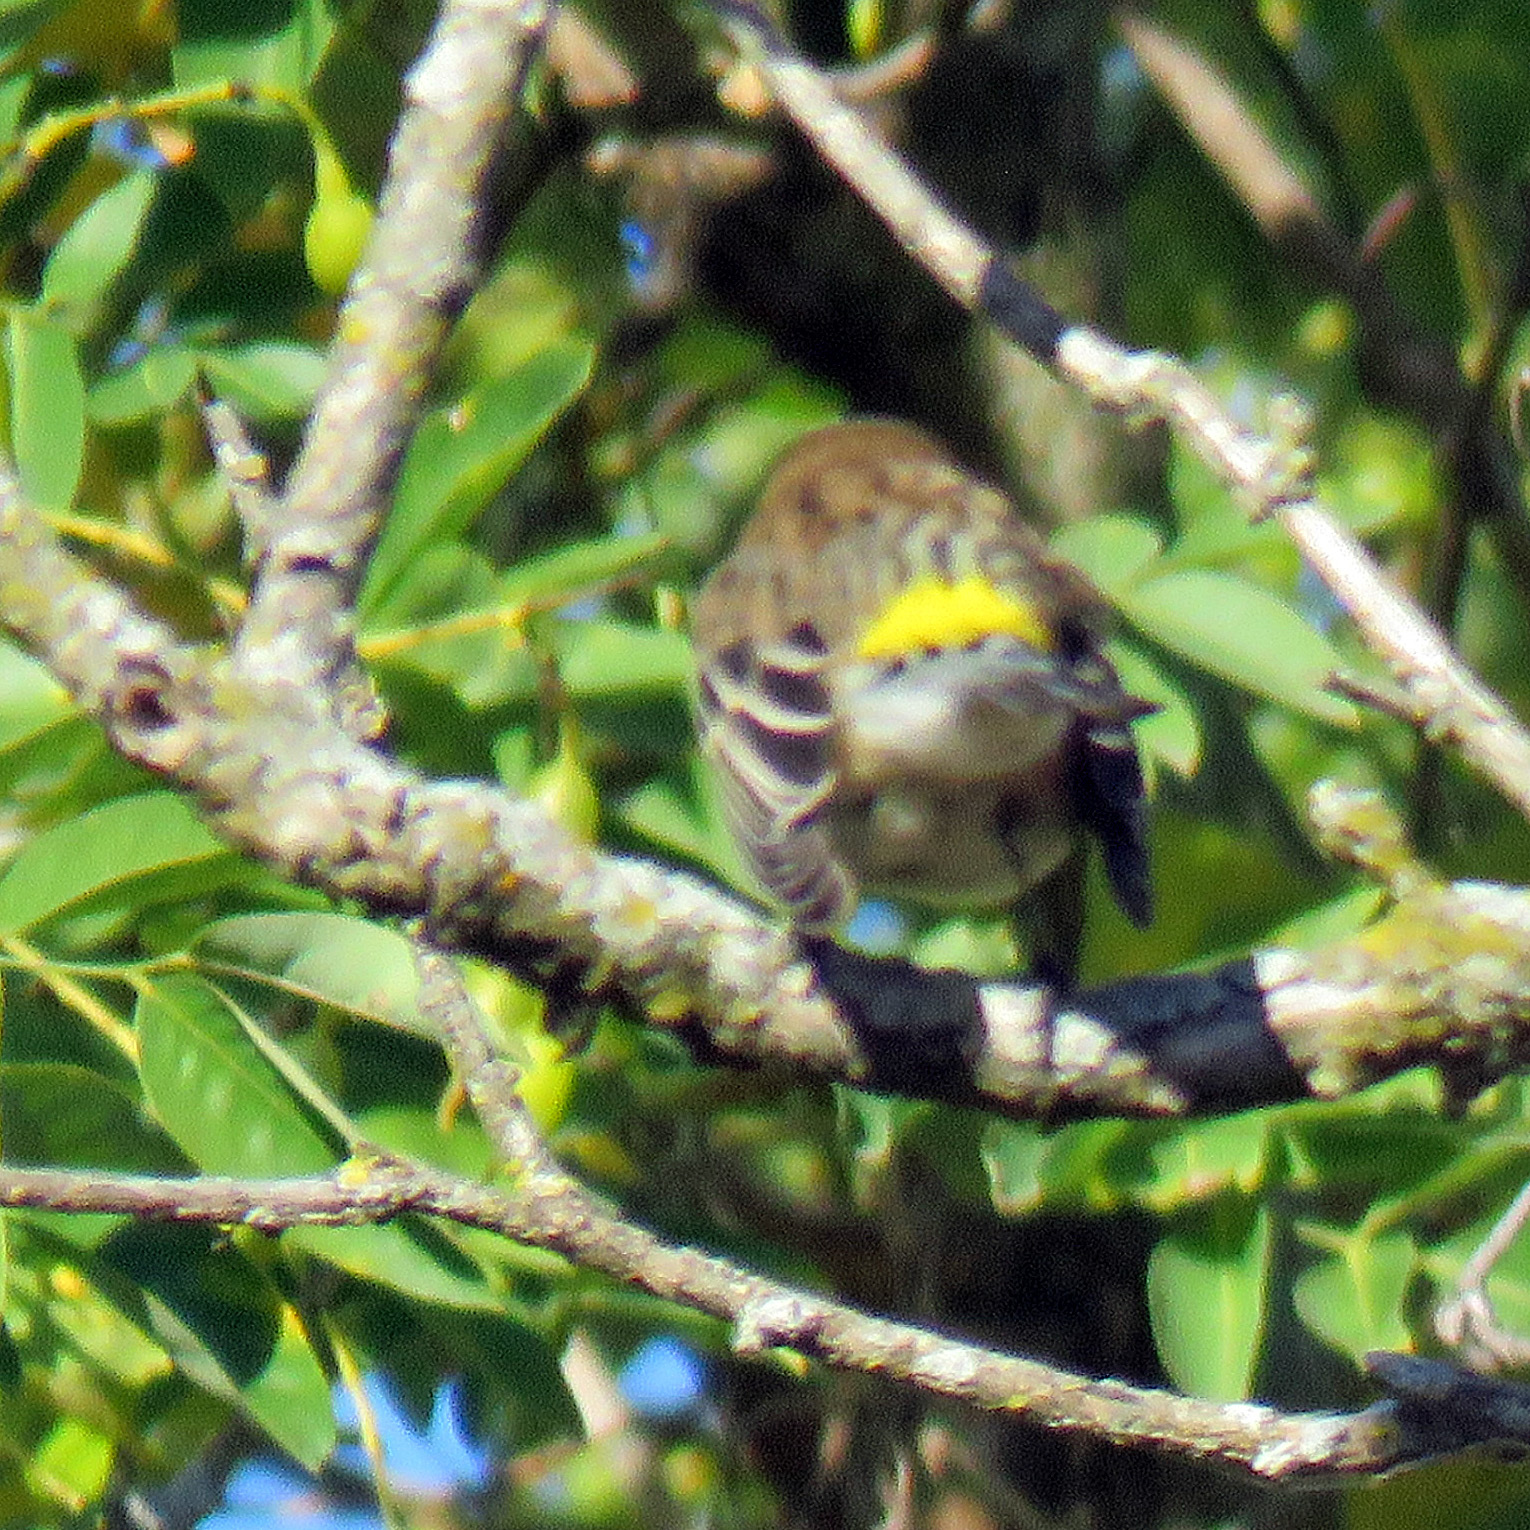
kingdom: Animalia
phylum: Chordata
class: Aves
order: Passeriformes
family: Parulidae
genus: Setophaga
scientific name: Setophaga coronata
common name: Myrtle warbler
